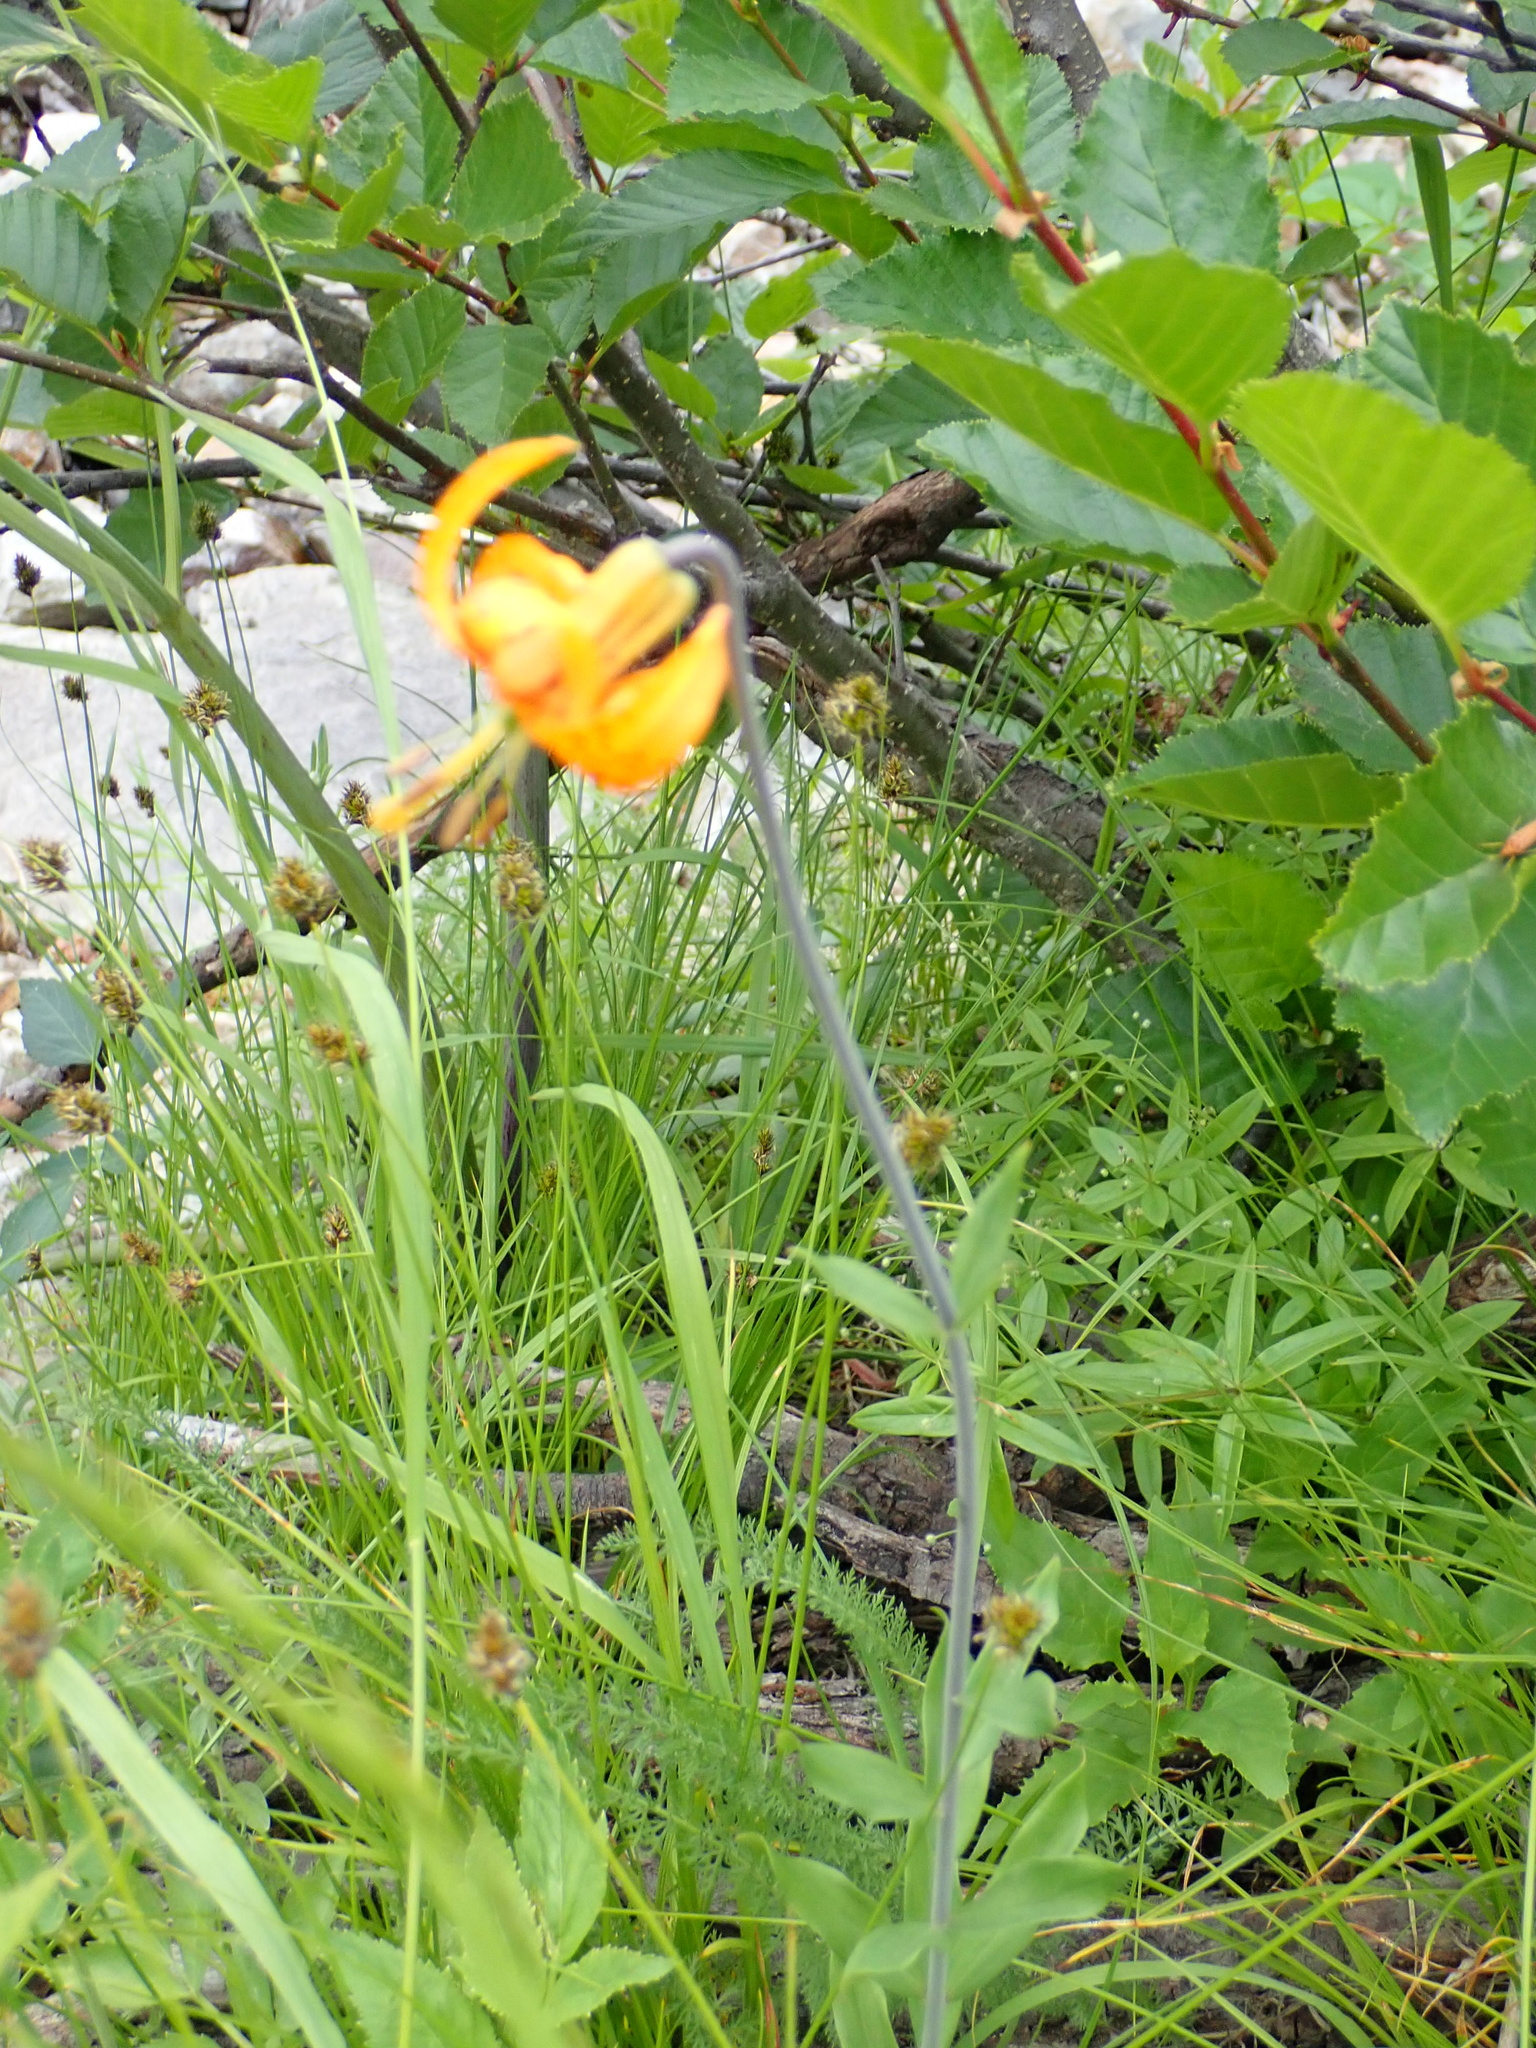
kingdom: Plantae
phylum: Tracheophyta
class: Liliopsida
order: Liliales
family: Liliaceae
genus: Lilium
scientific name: Lilium columbianum
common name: Columbia lily
